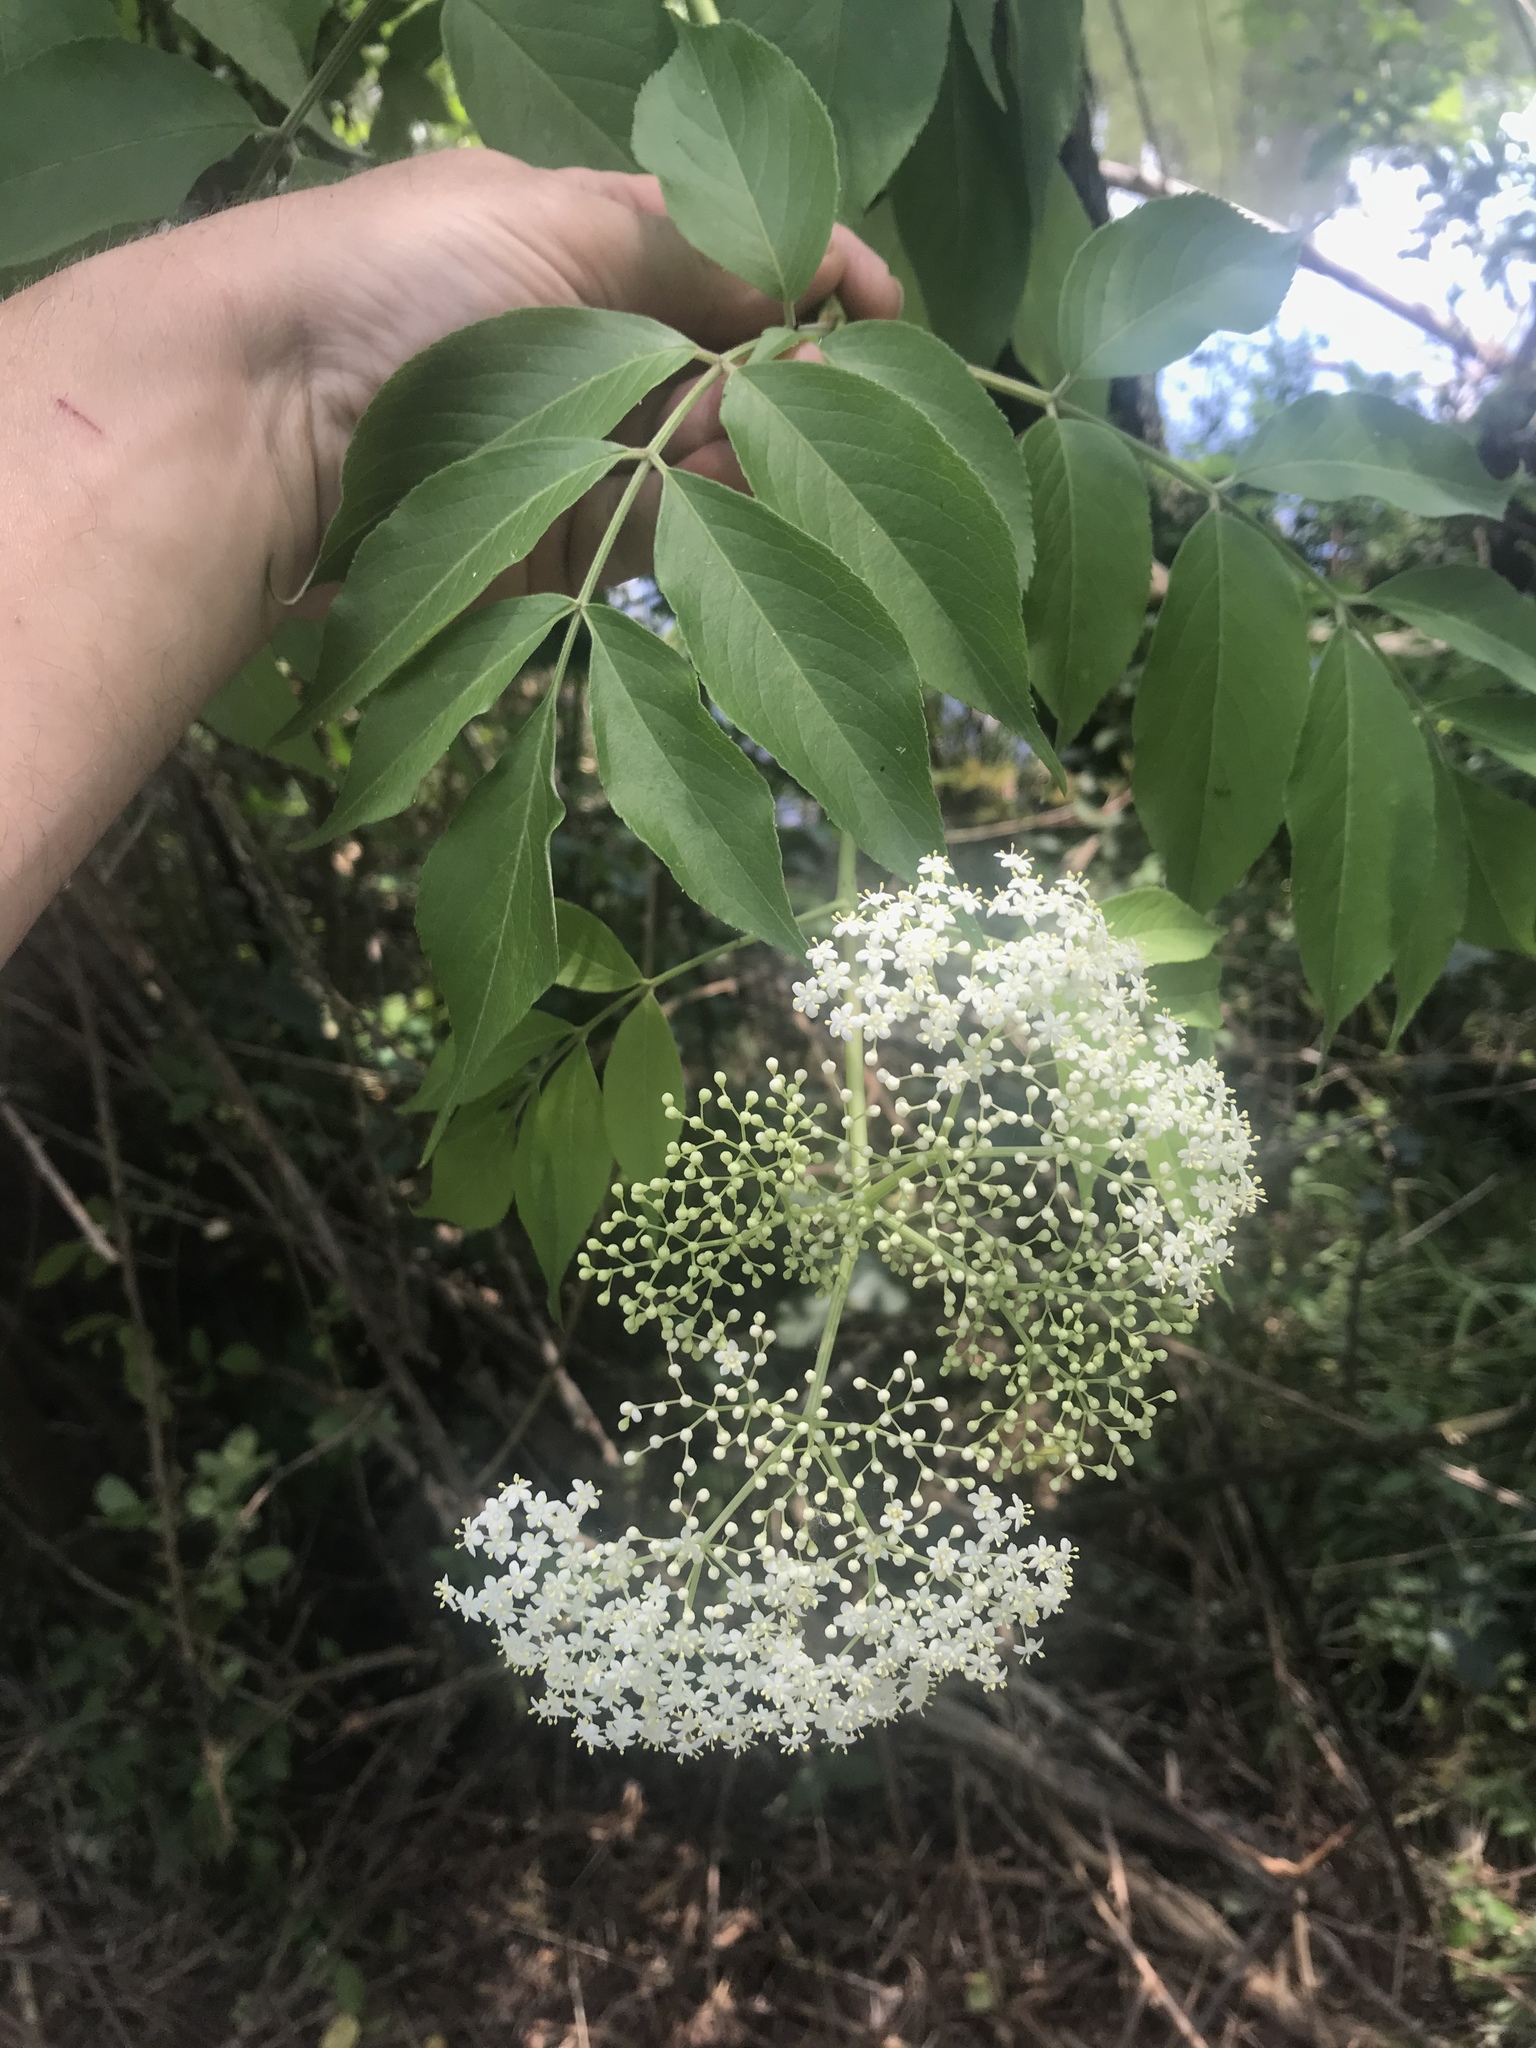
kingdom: Plantae
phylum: Tracheophyta
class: Magnoliopsida
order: Dipsacales
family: Viburnaceae
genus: Sambucus
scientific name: Sambucus canadensis
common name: American elder
